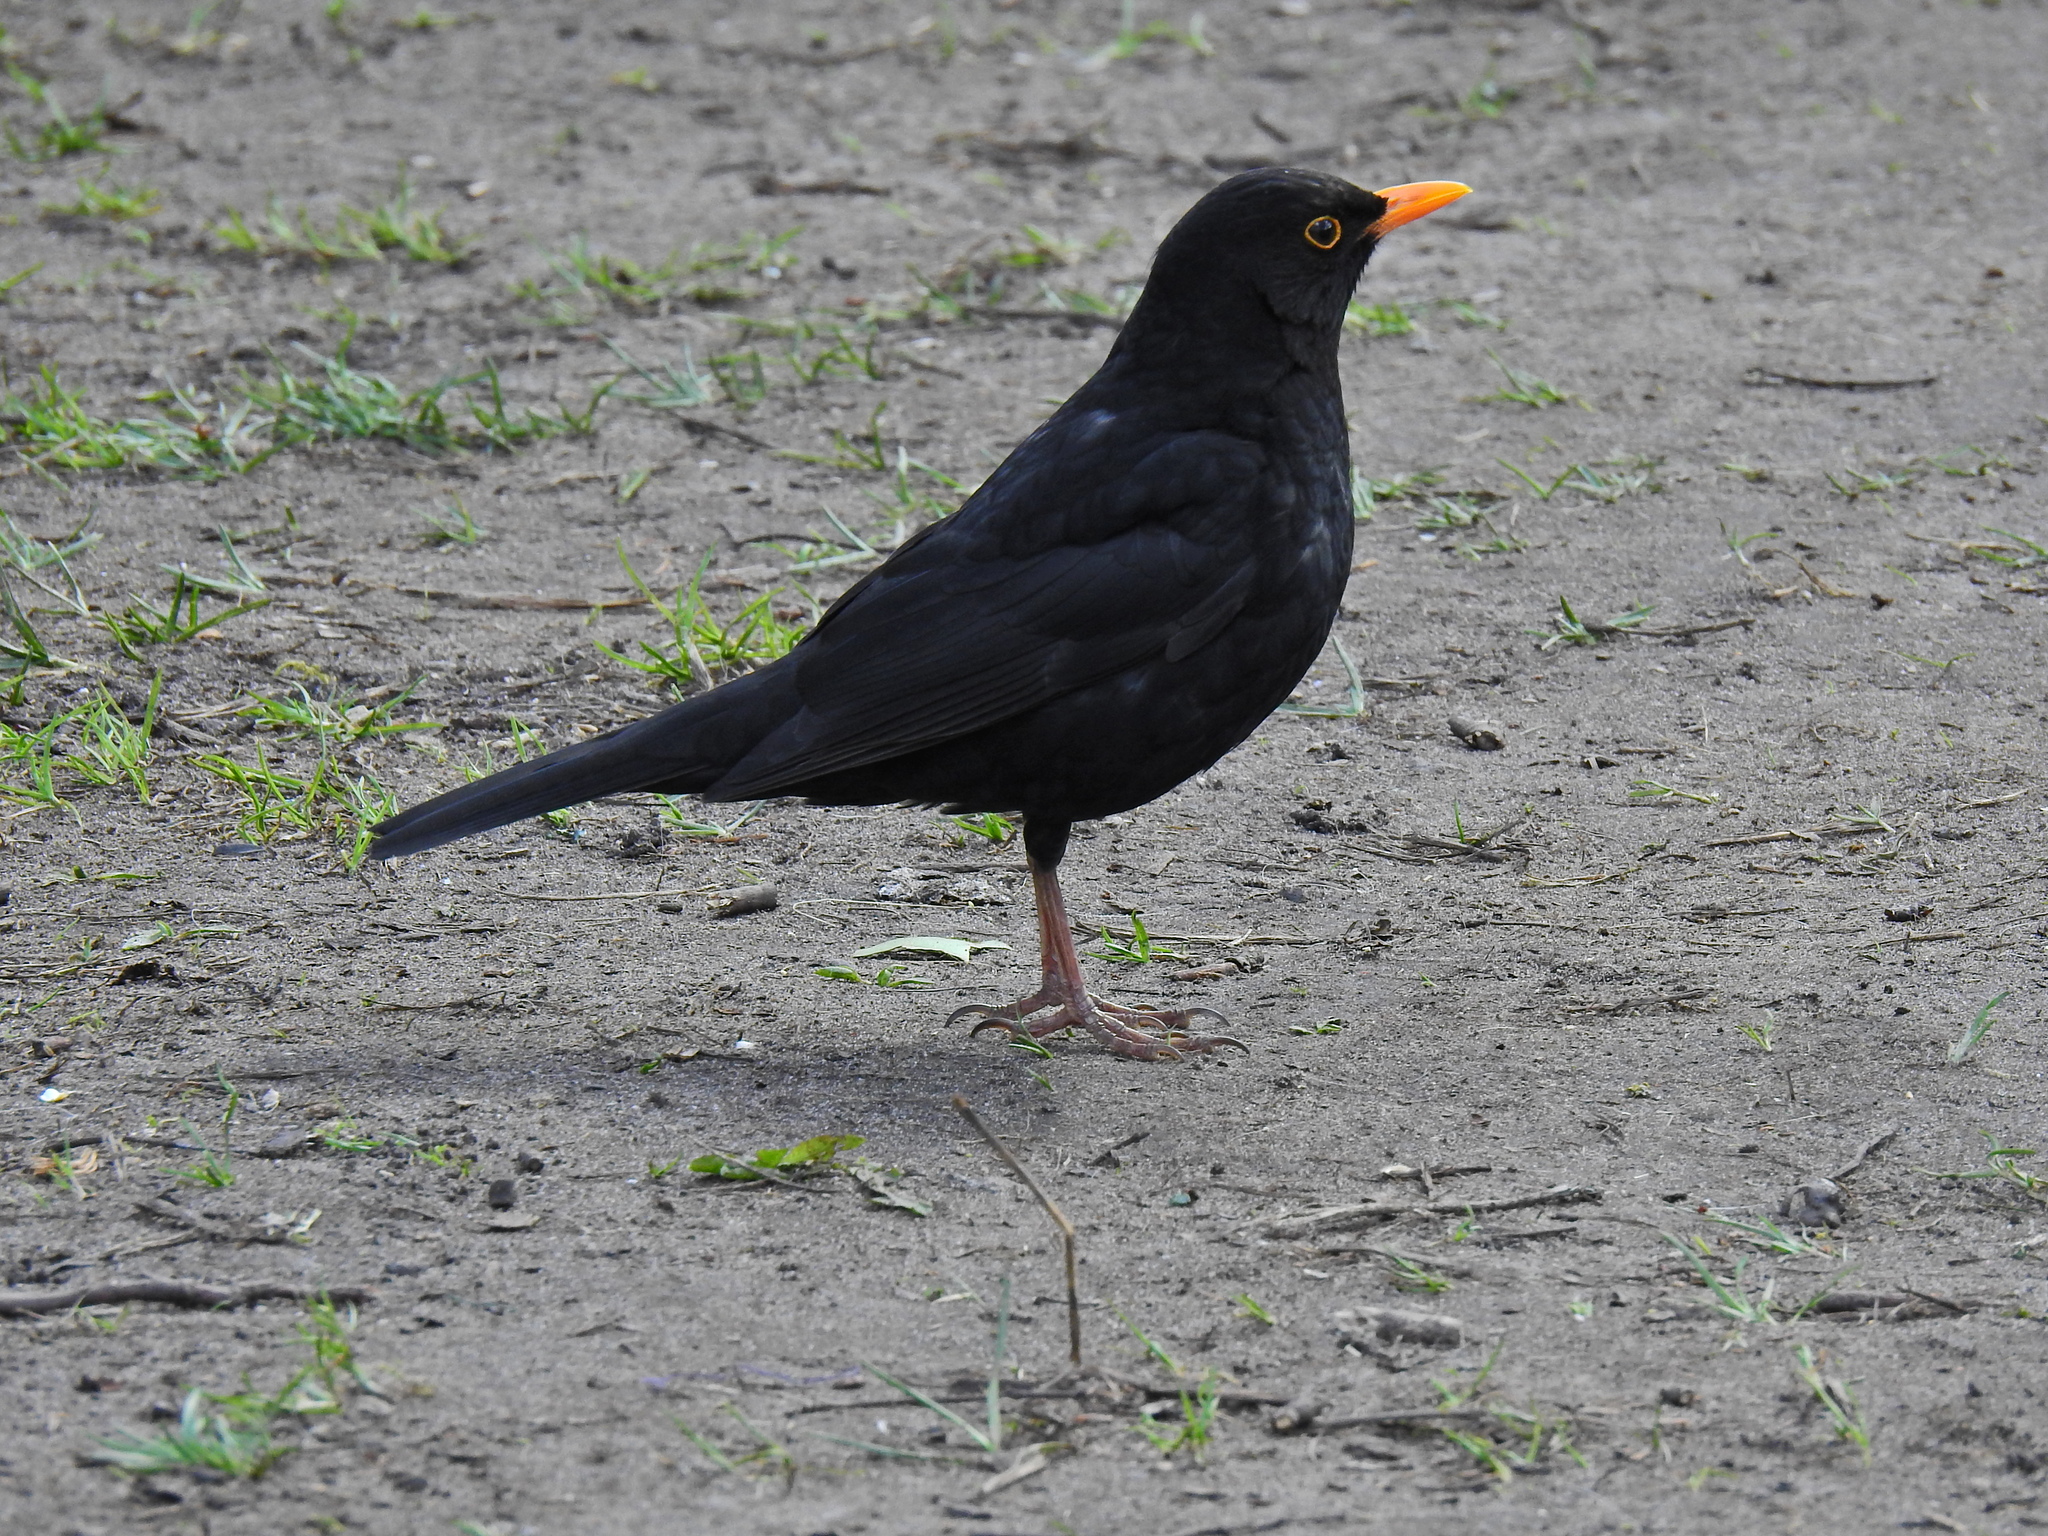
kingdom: Animalia
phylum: Chordata
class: Aves
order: Passeriformes
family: Turdidae
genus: Turdus
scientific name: Turdus merula
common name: Common blackbird
